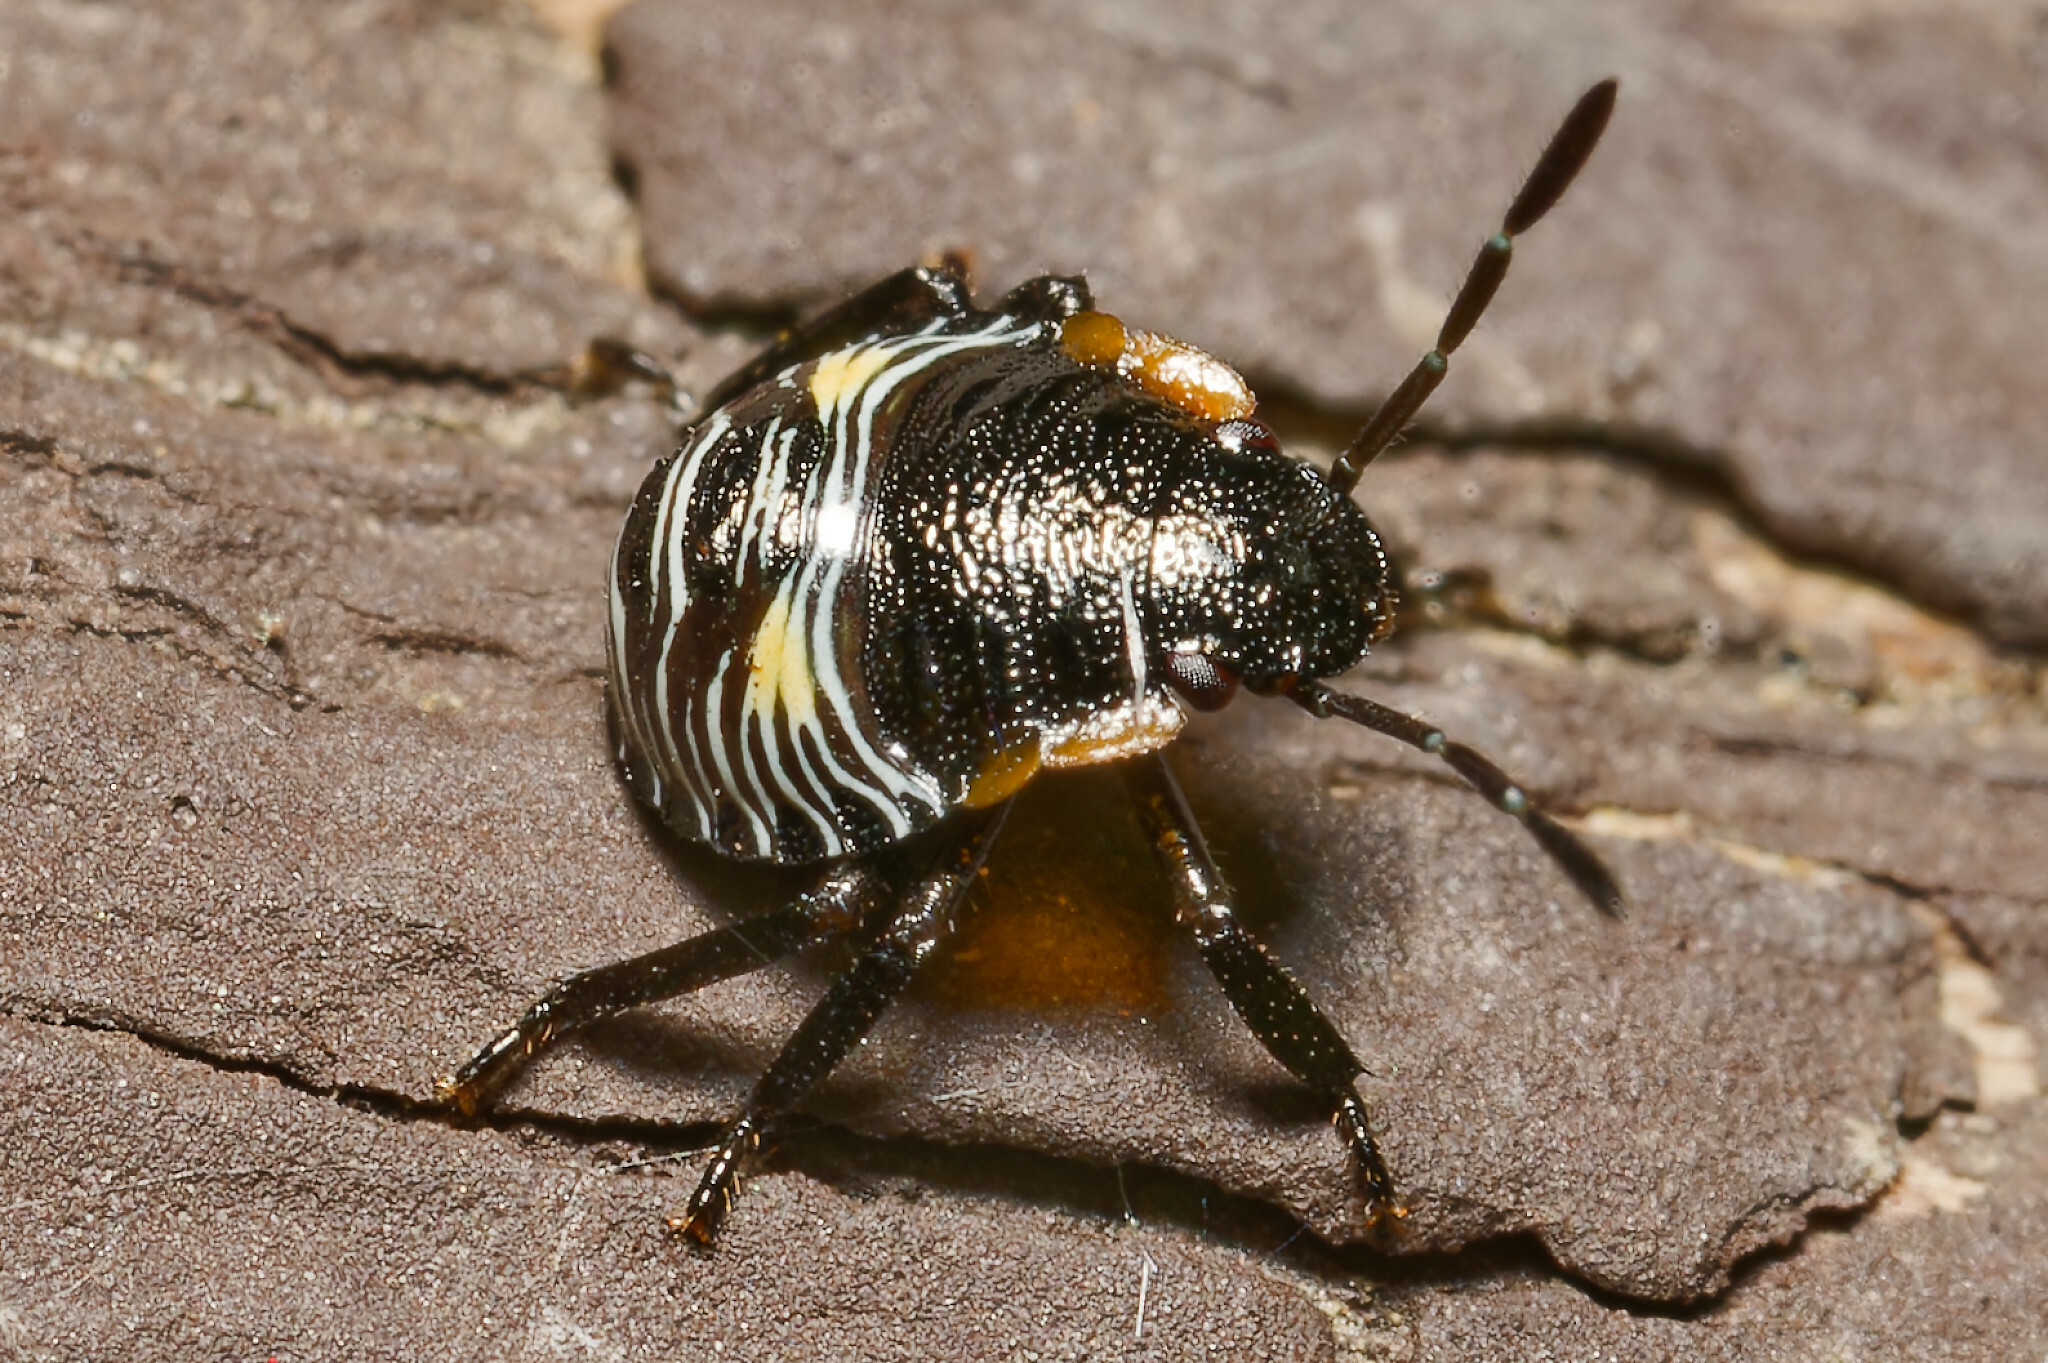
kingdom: Animalia
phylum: Arthropoda
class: Insecta
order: Hemiptera
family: Pentatomidae
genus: Chinavia
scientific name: Chinavia hilaris
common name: Green stink bug
